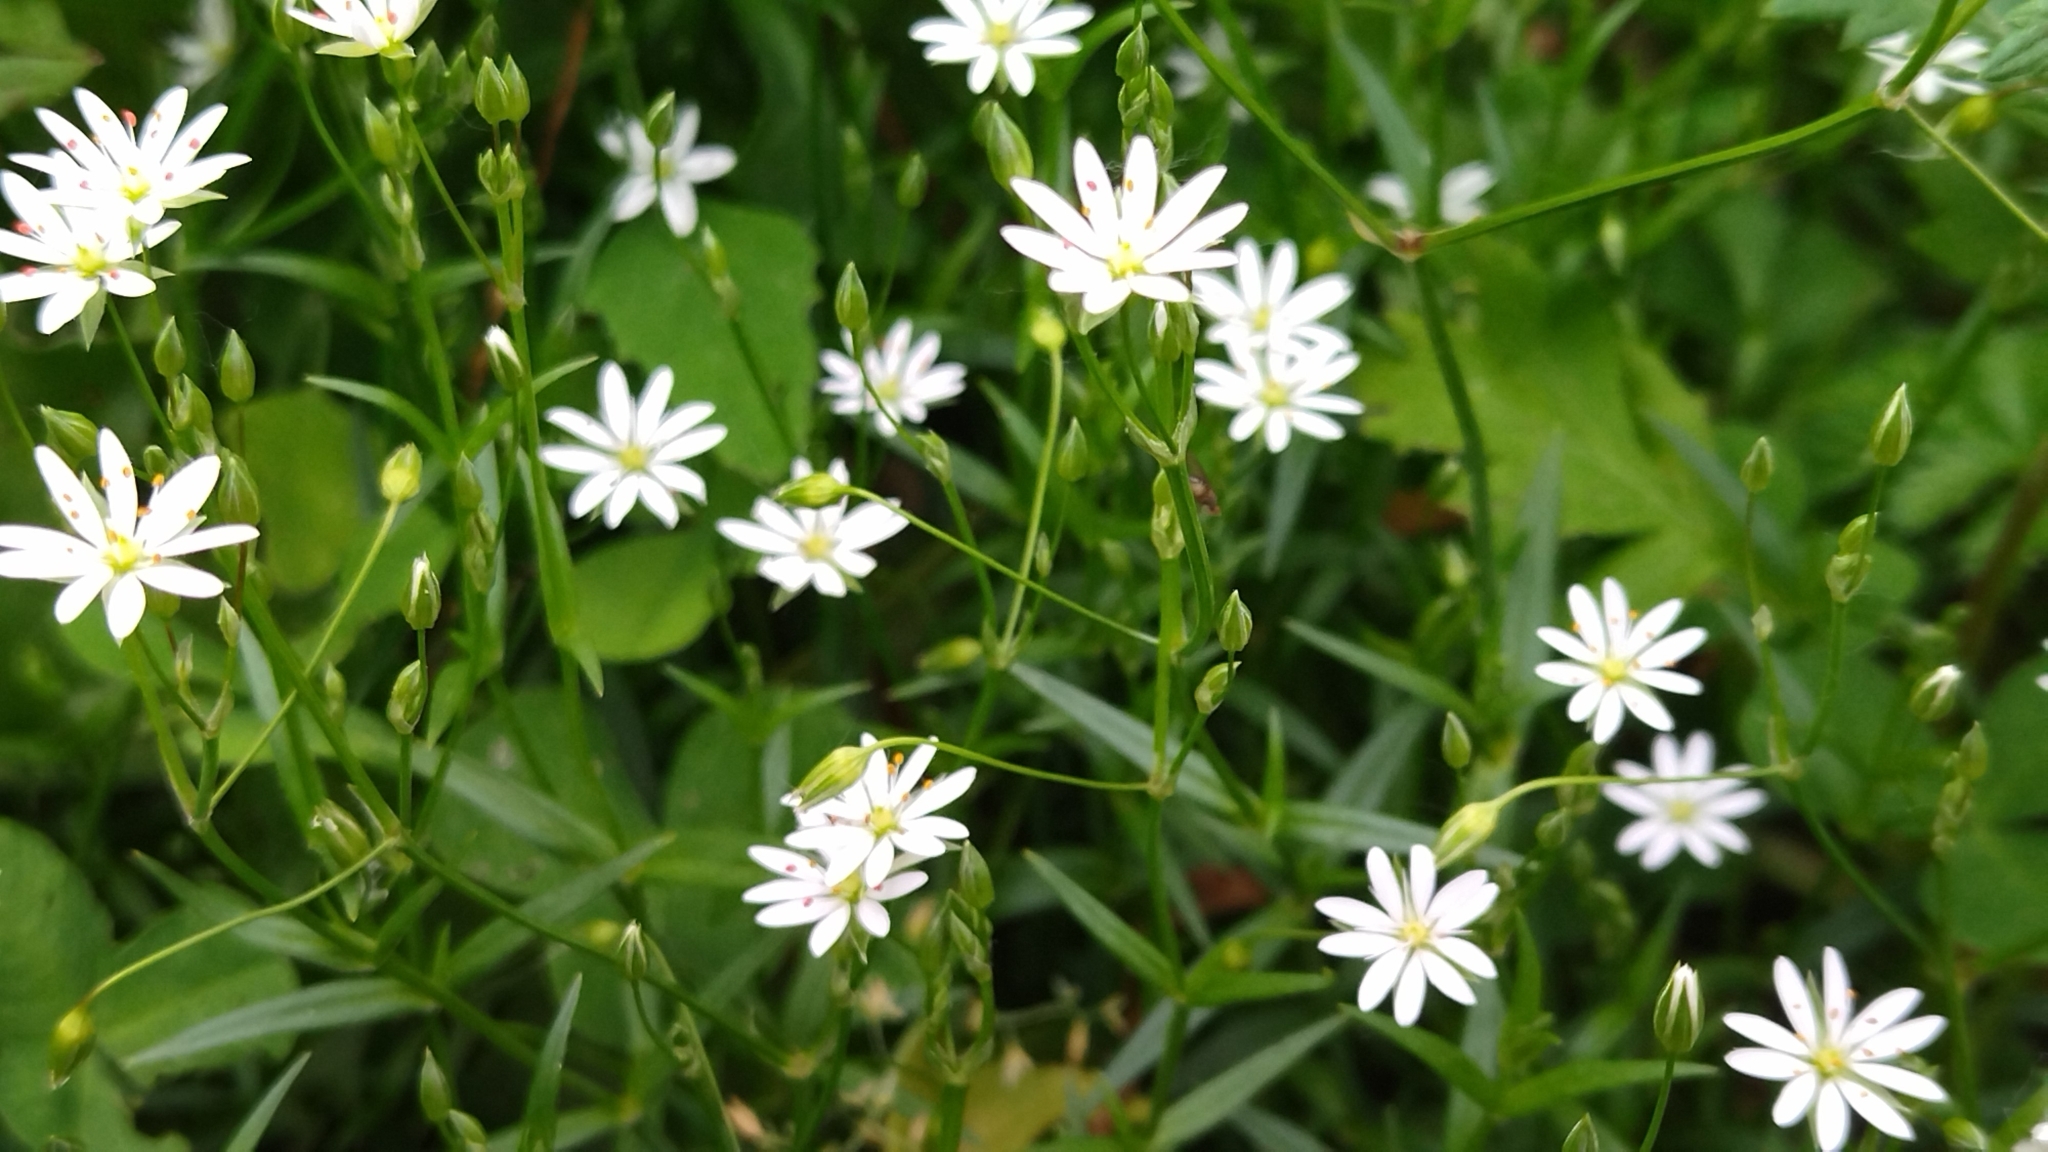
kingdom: Plantae
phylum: Tracheophyta
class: Magnoliopsida
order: Caryophyllales
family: Caryophyllaceae
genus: Rabelera
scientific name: Rabelera holostea
